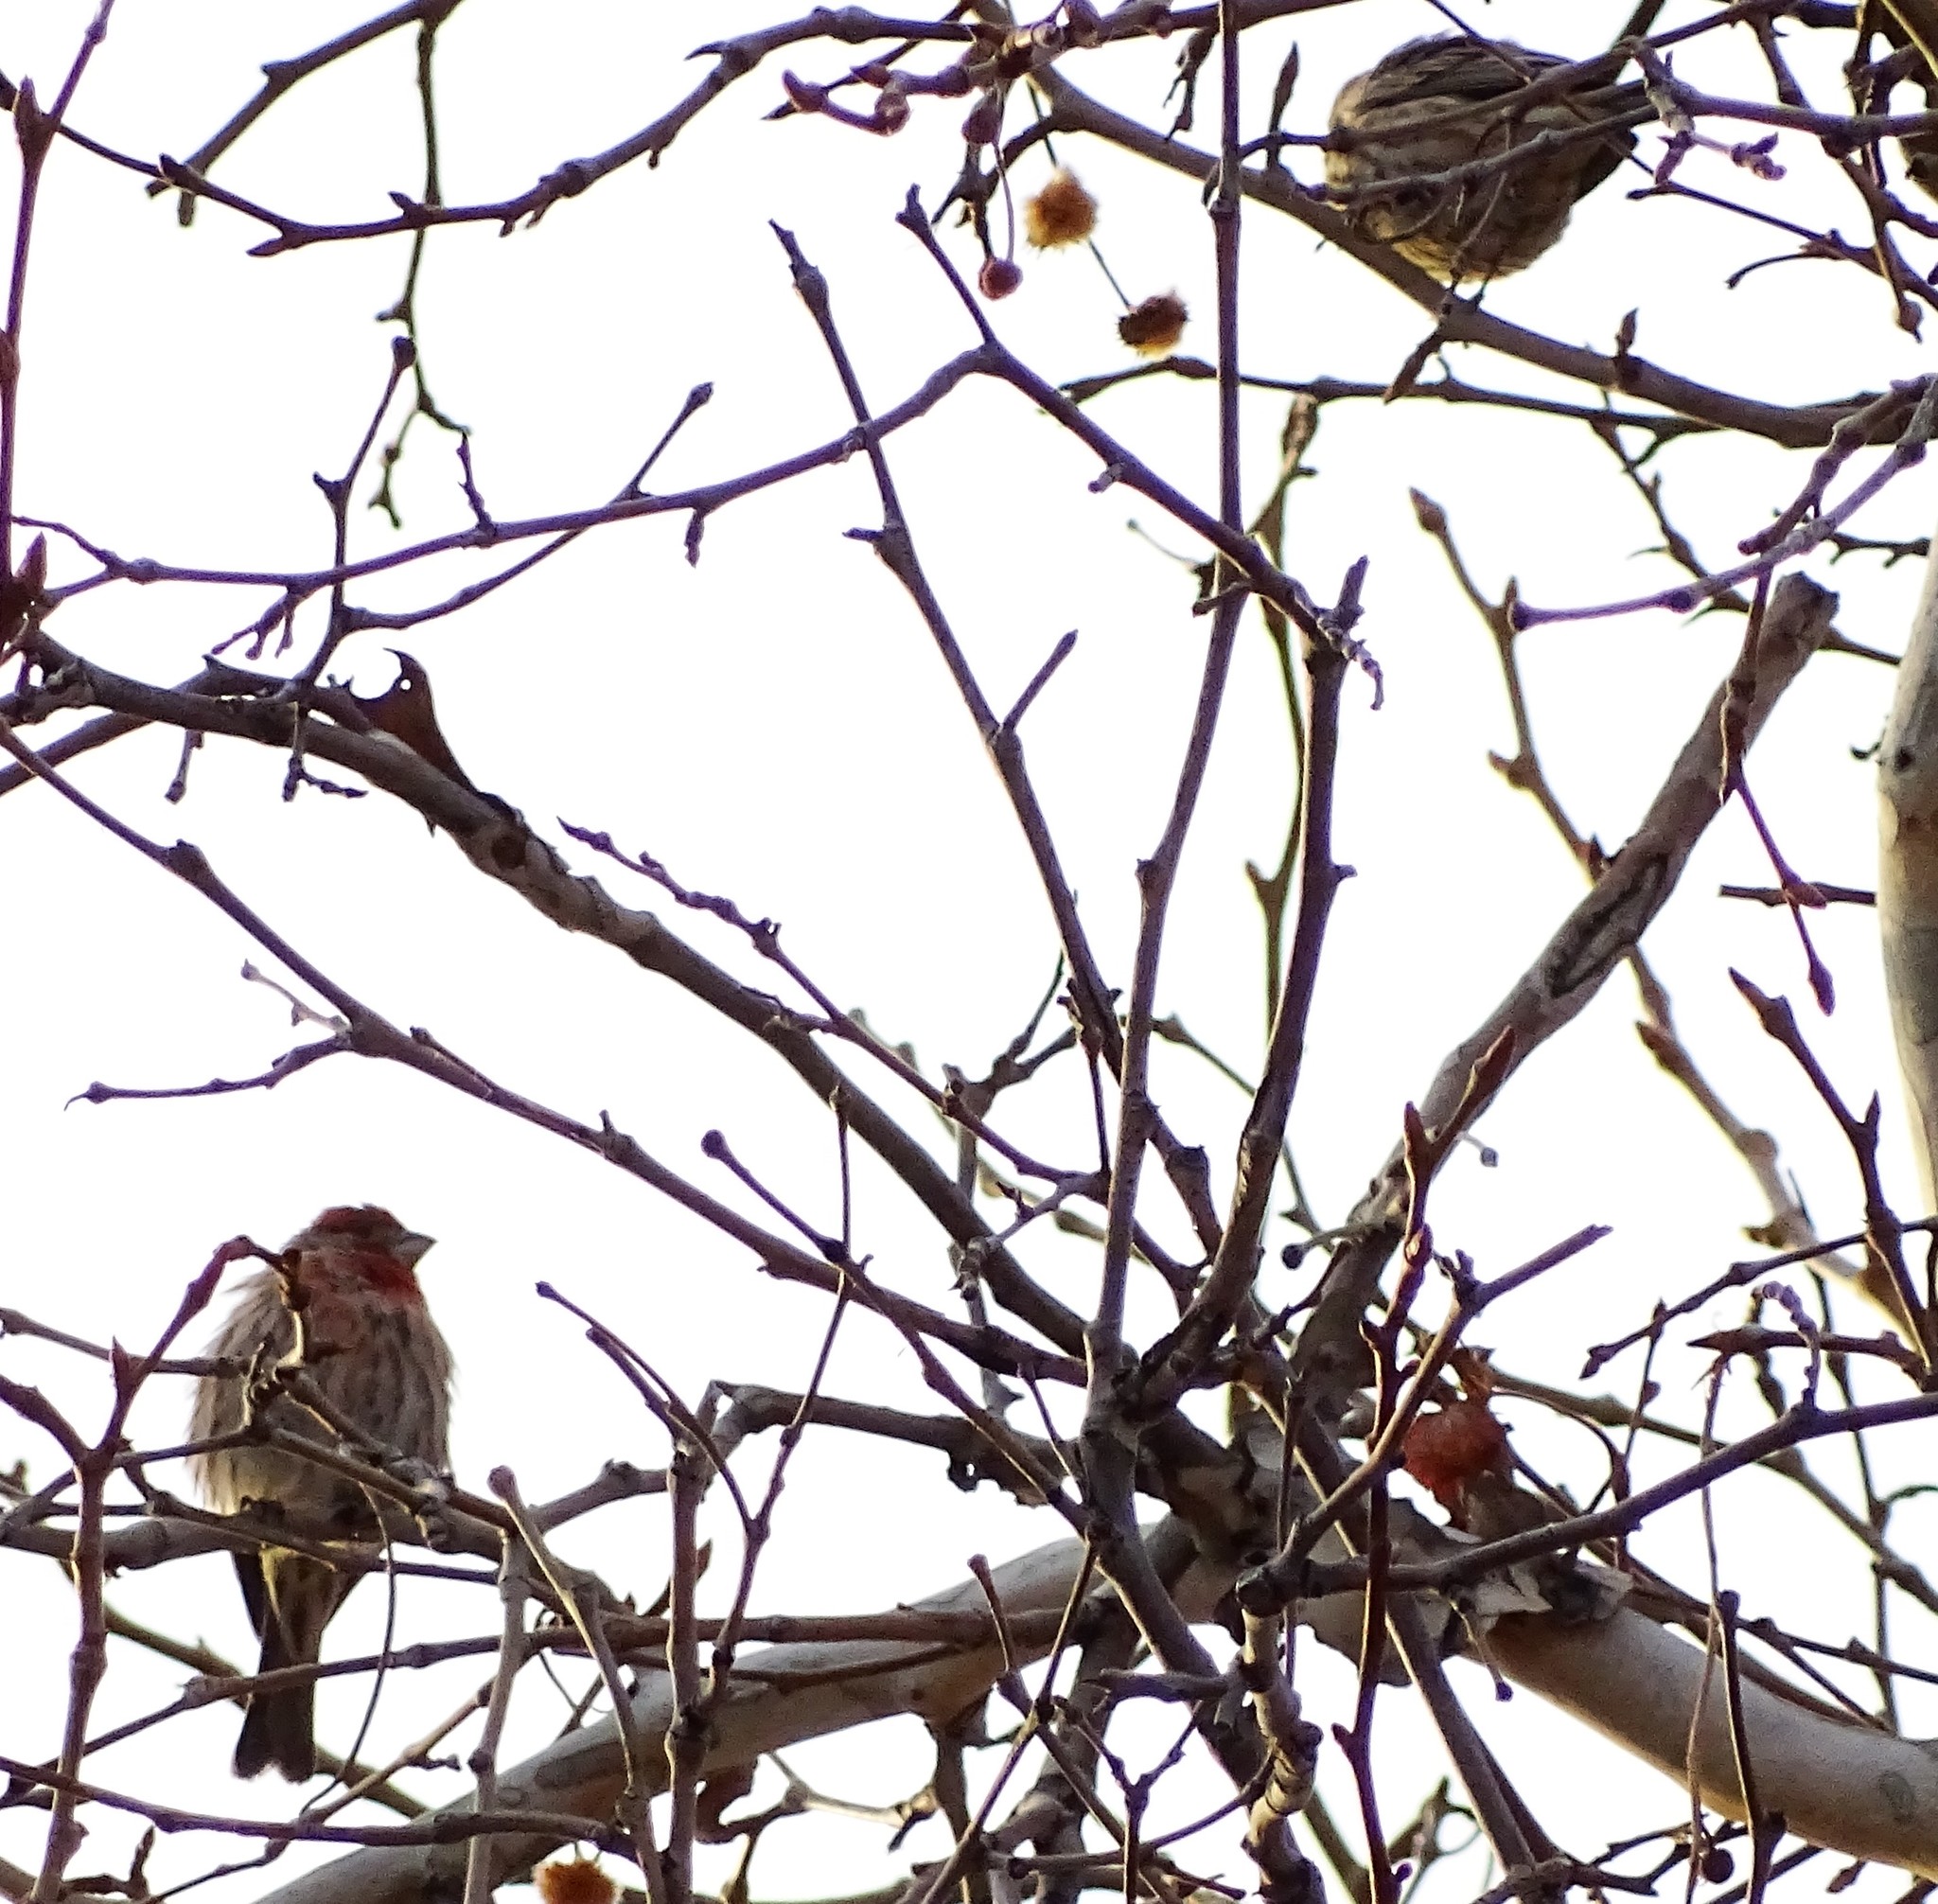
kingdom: Animalia
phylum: Chordata
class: Aves
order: Passeriformes
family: Fringillidae
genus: Haemorhous
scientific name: Haemorhous mexicanus
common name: House finch
